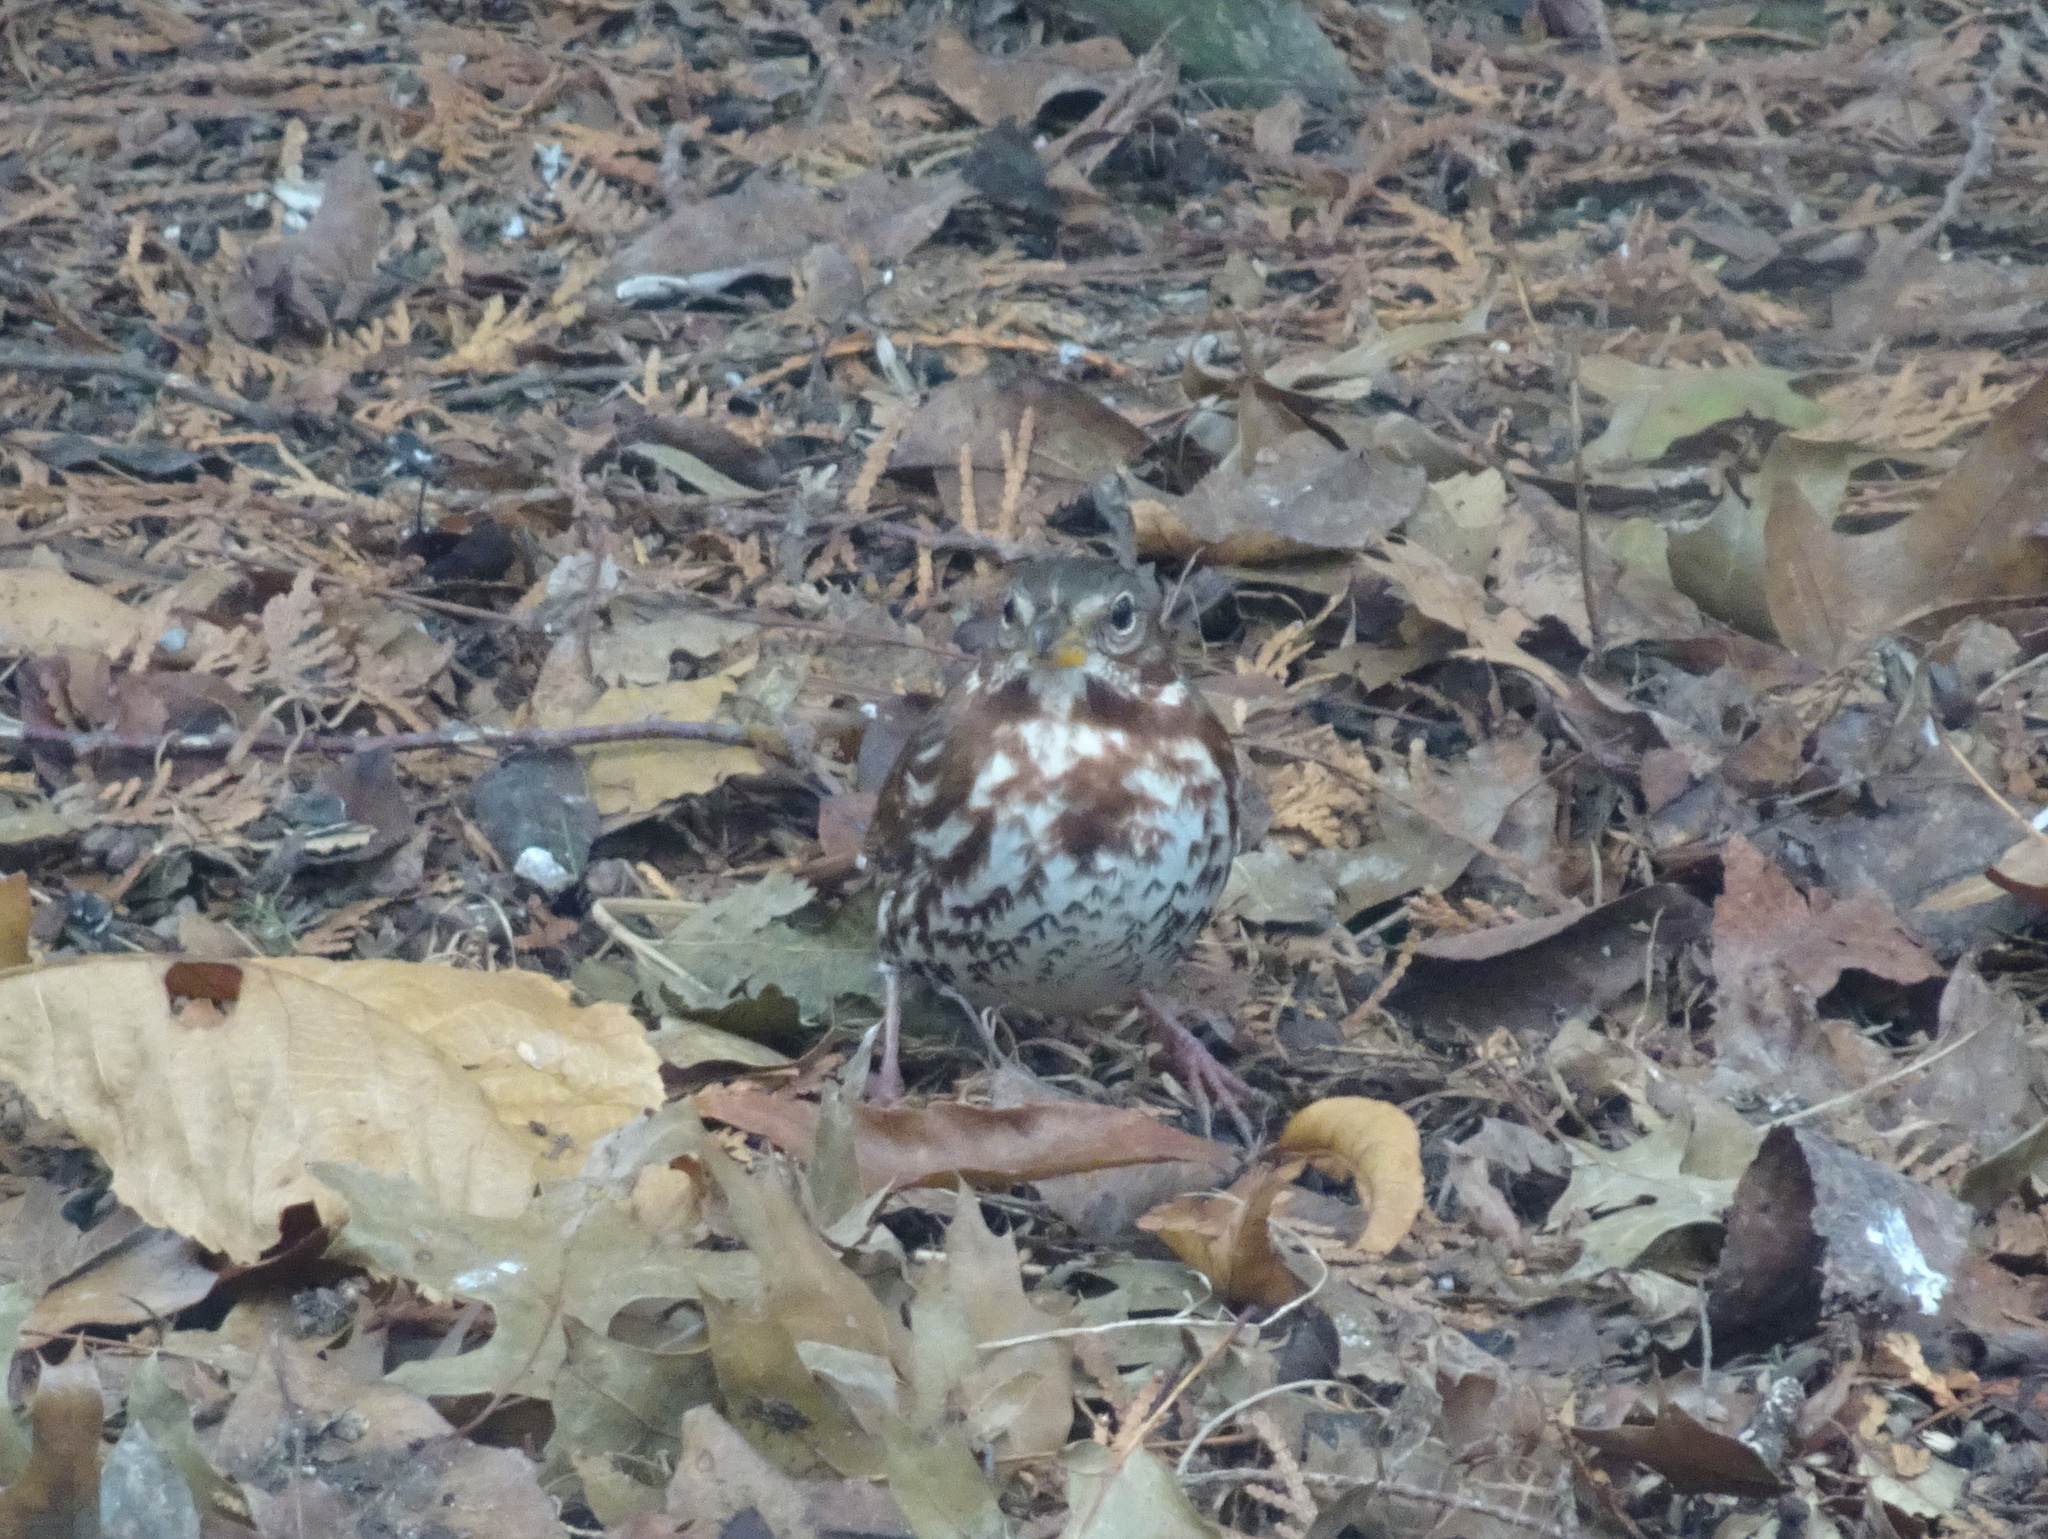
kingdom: Animalia
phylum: Chordata
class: Aves
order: Passeriformes
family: Passerellidae
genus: Passerella
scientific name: Passerella iliaca
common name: Fox sparrow
